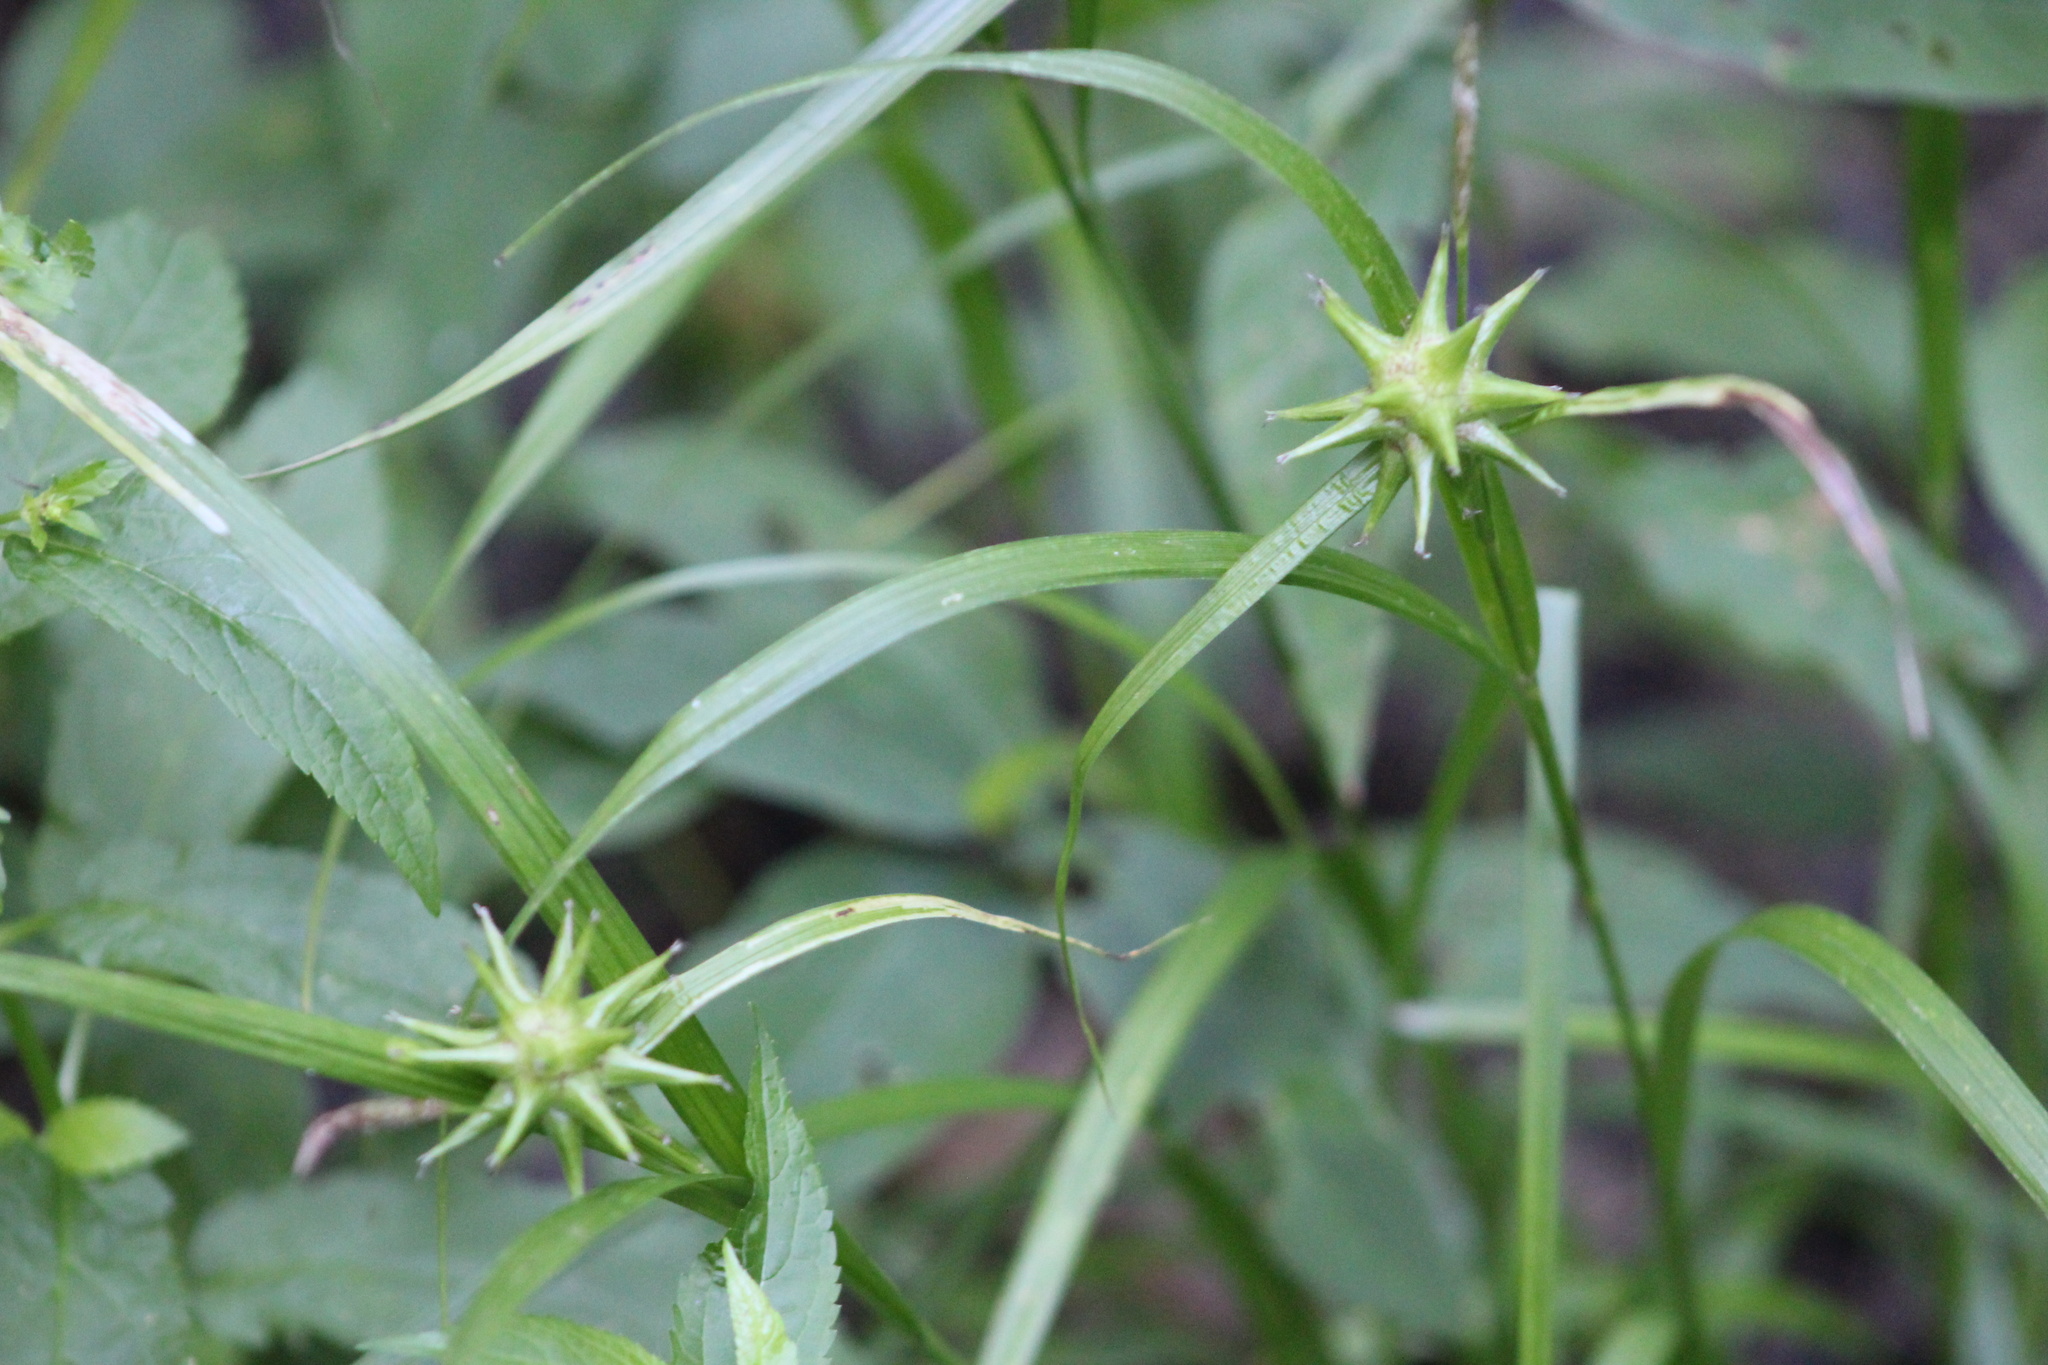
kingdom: Plantae
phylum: Tracheophyta
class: Liliopsida
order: Poales
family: Cyperaceae
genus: Carex
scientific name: Carex grayi
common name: Asa gray's sedge
